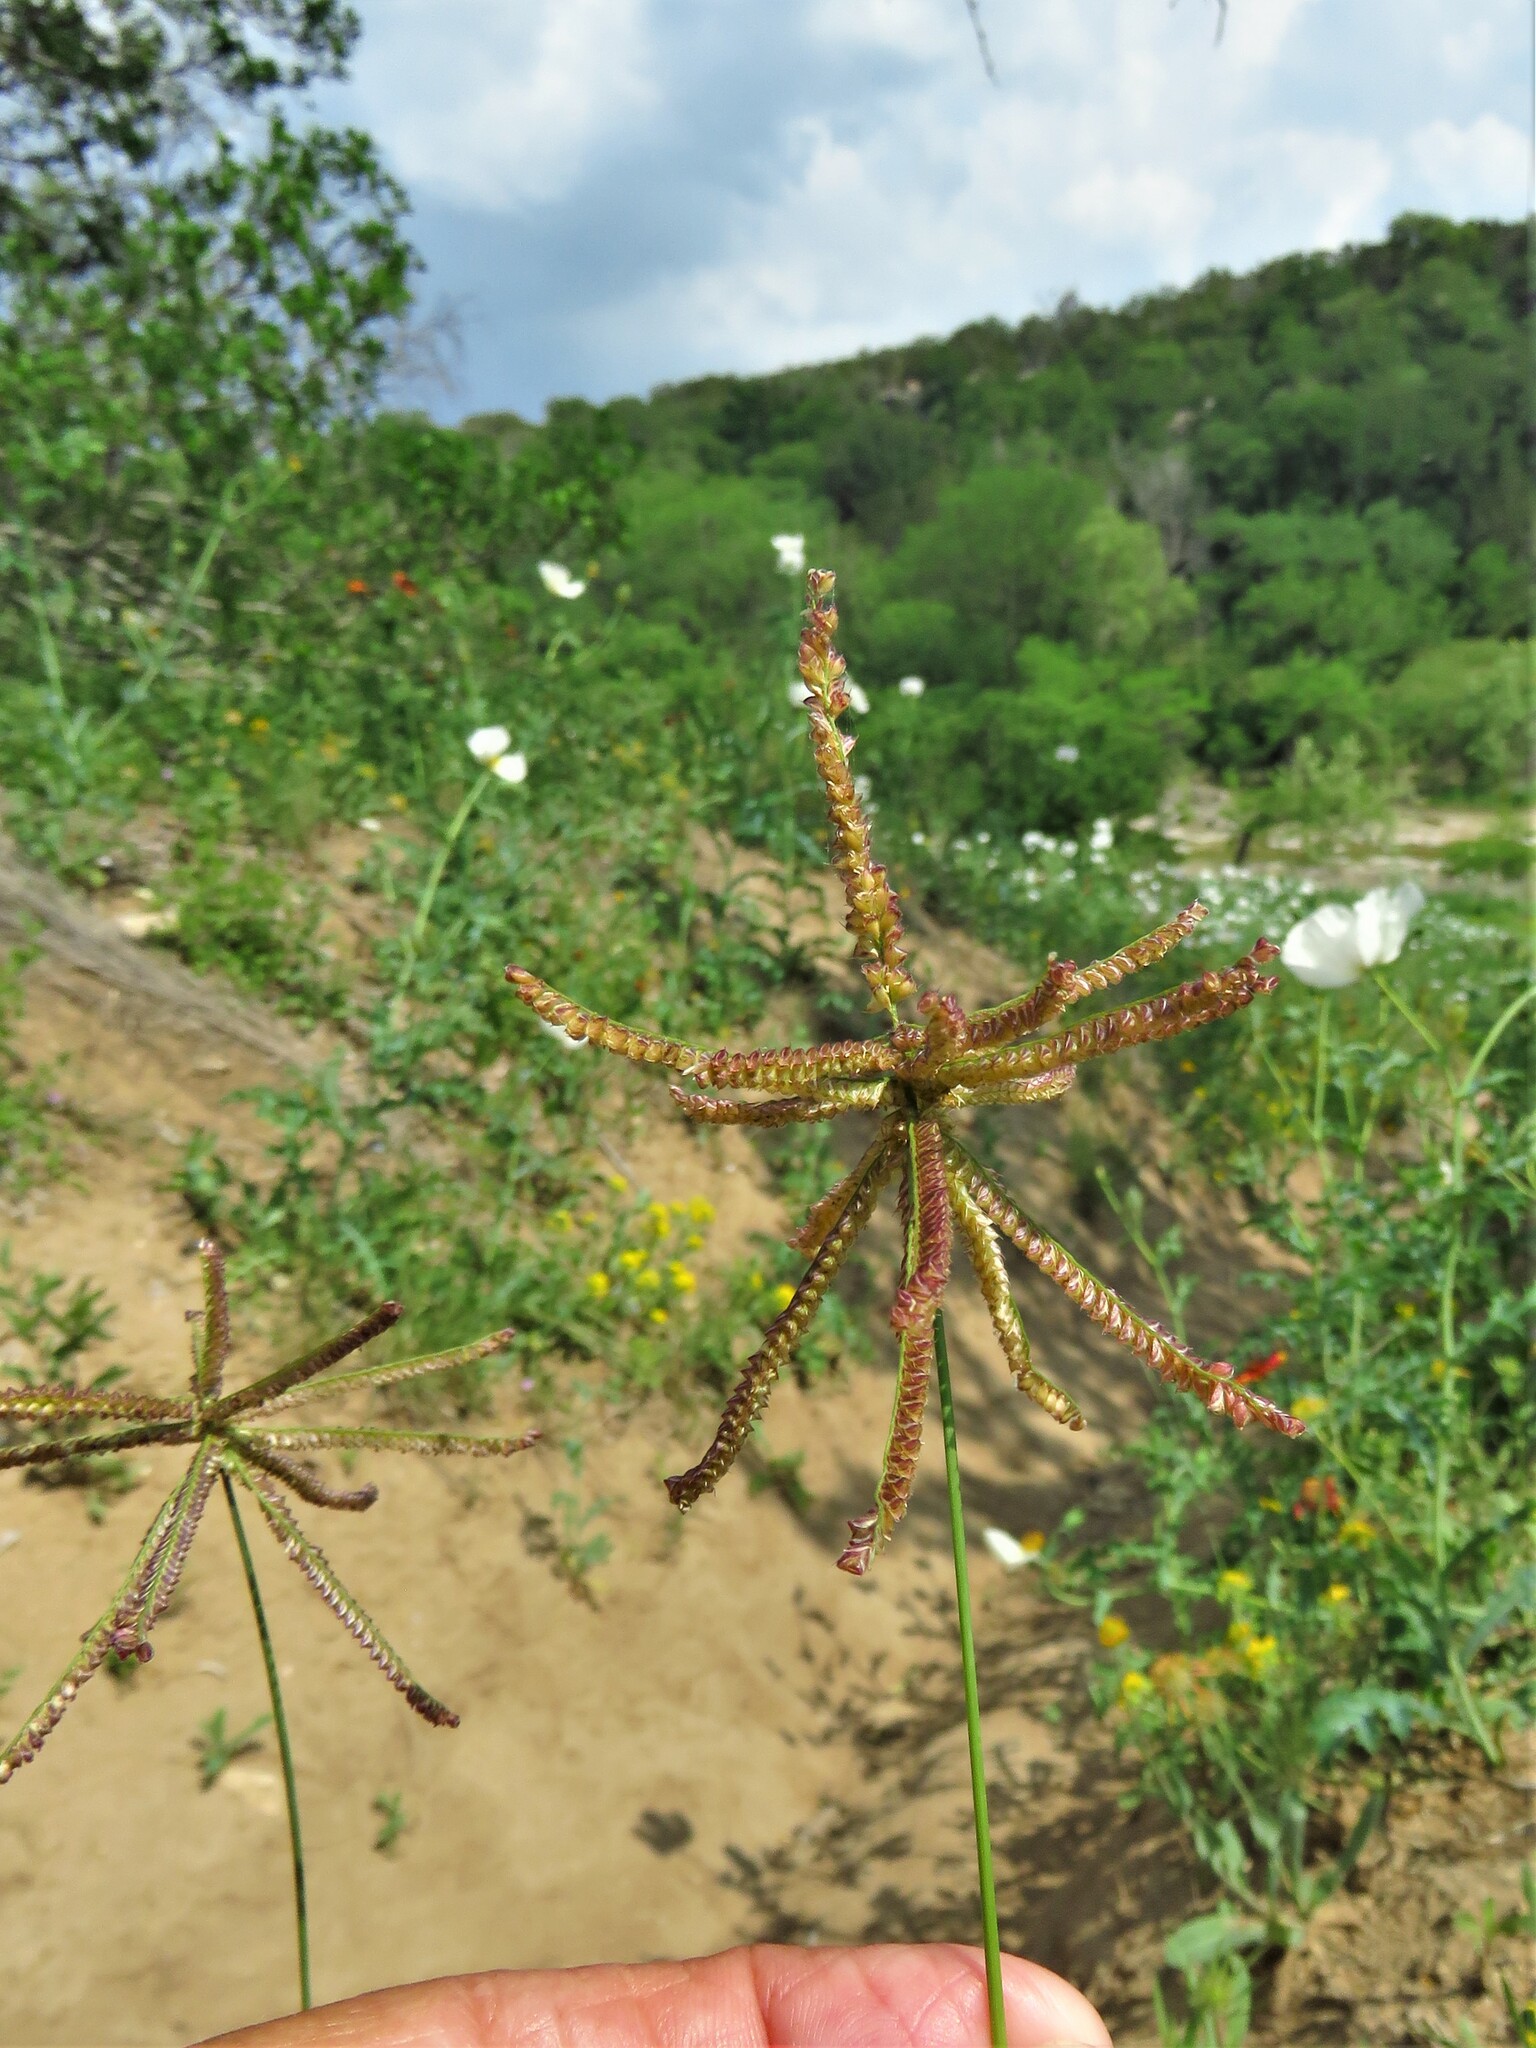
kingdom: Plantae
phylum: Tracheophyta
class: Liliopsida
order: Poales
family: Poaceae
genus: Chloris
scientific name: Chloris cucullata
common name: Hooded windmill grass
